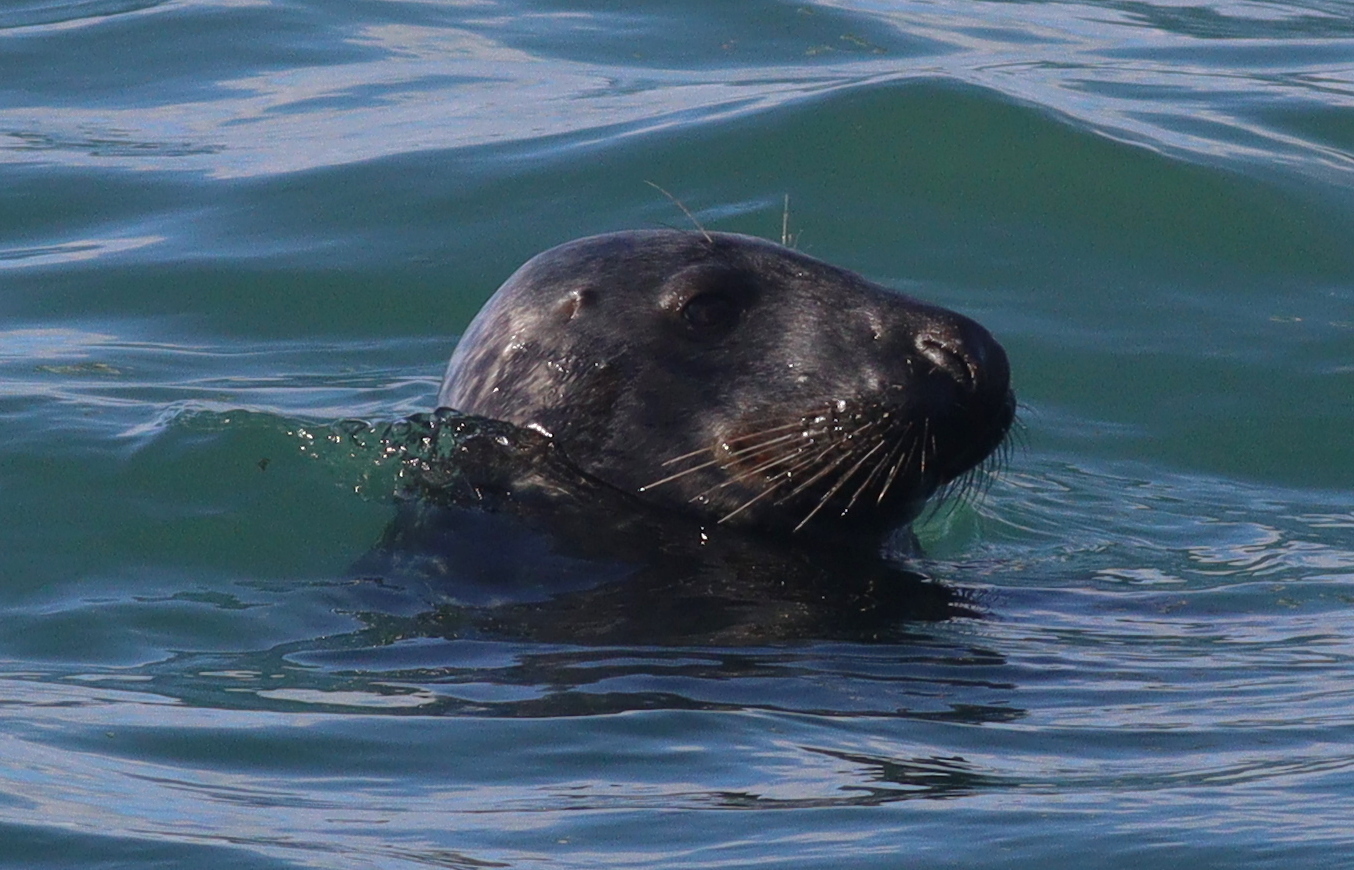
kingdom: Animalia
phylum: Chordata
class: Mammalia
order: Carnivora
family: Phocidae
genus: Halichoerus
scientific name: Halichoerus grypus
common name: Grey seal
